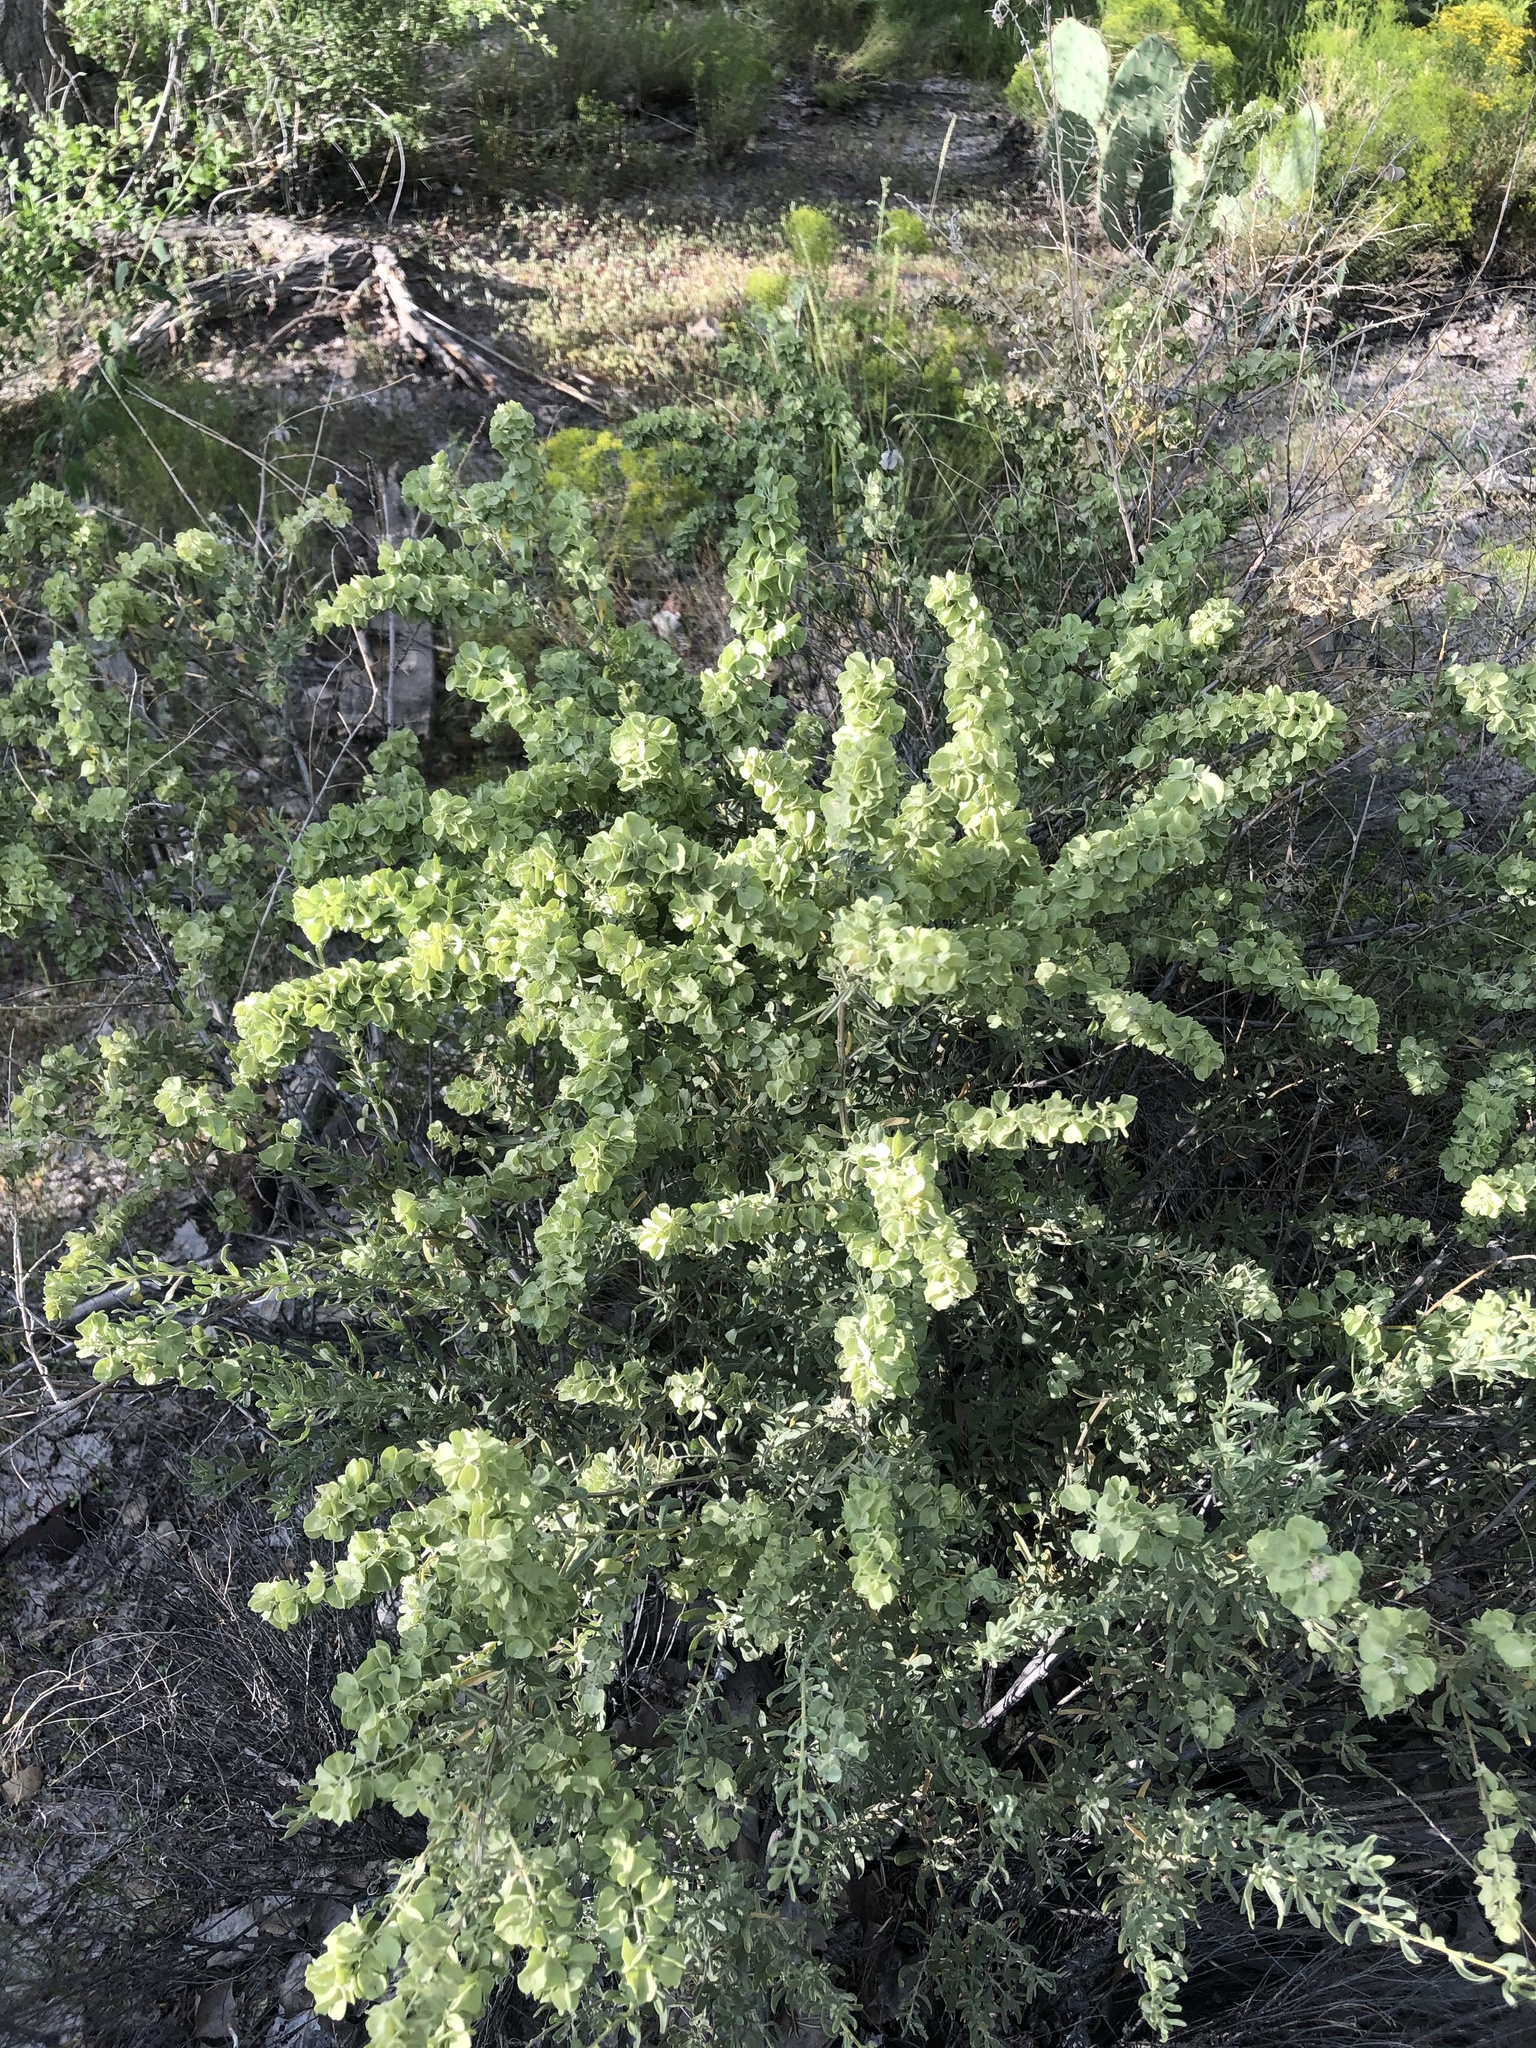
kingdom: Plantae
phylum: Tracheophyta
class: Magnoliopsida
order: Caryophyllales
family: Amaranthaceae
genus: Atriplex
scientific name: Atriplex canescens
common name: Four-wing saltbush
